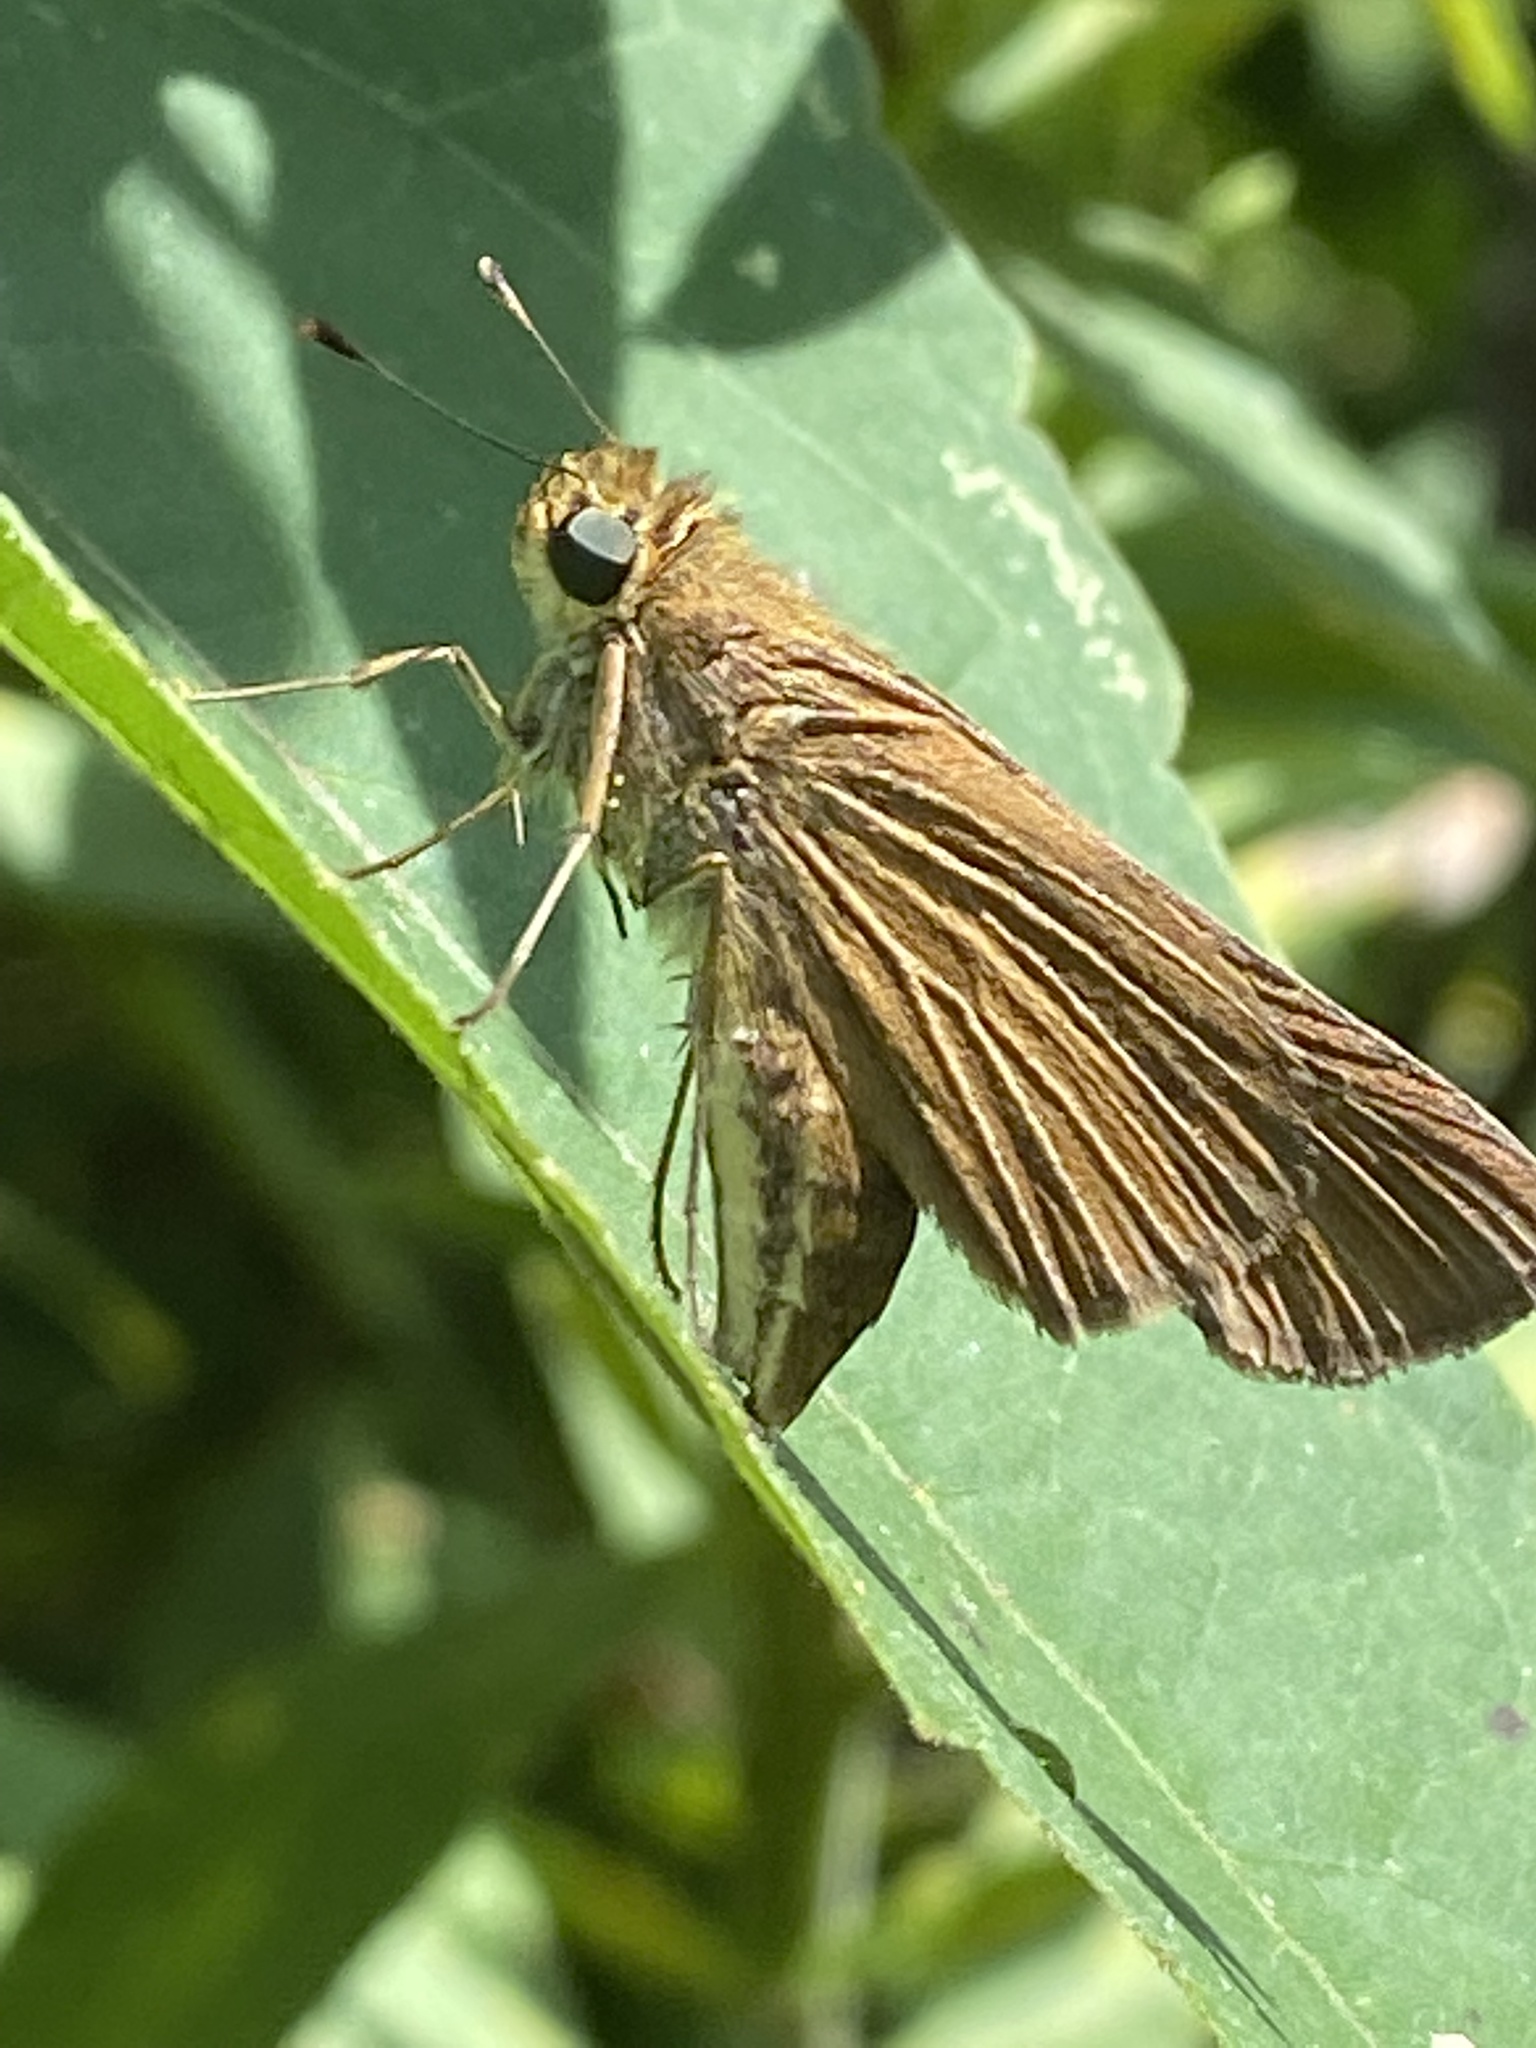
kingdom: Animalia
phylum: Arthropoda
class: Insecta
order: Lepidoptera
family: Hesperiidae
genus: Panoquina
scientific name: Panoquina ocola
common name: Ocola skipper
